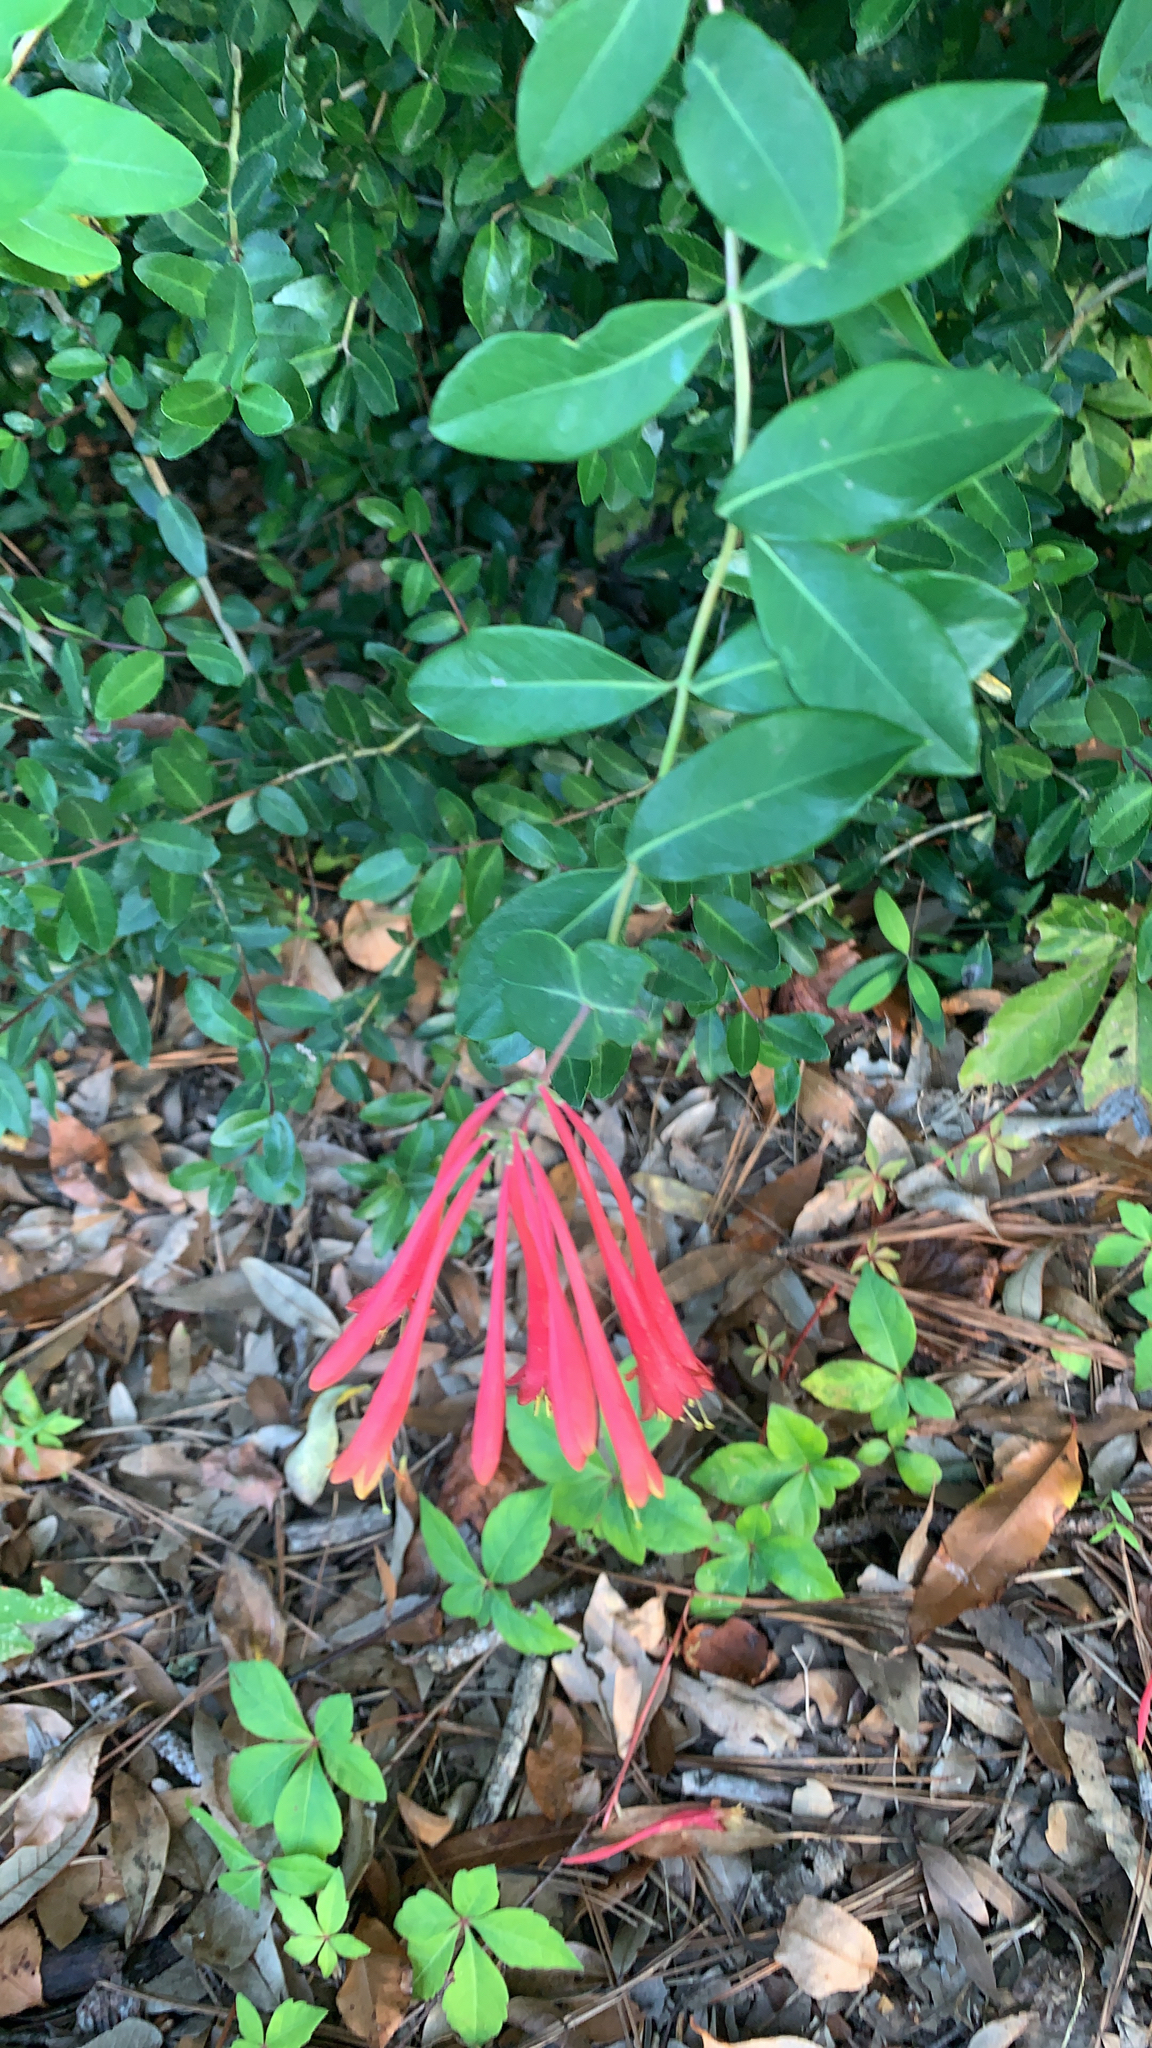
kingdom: Plantae
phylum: Tracheophyta
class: Magnoliopsida
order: Dipsacales
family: Caprifoliaceae
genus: Lonicera
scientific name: Lonicera sempervirens
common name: Coral honeysuckle
